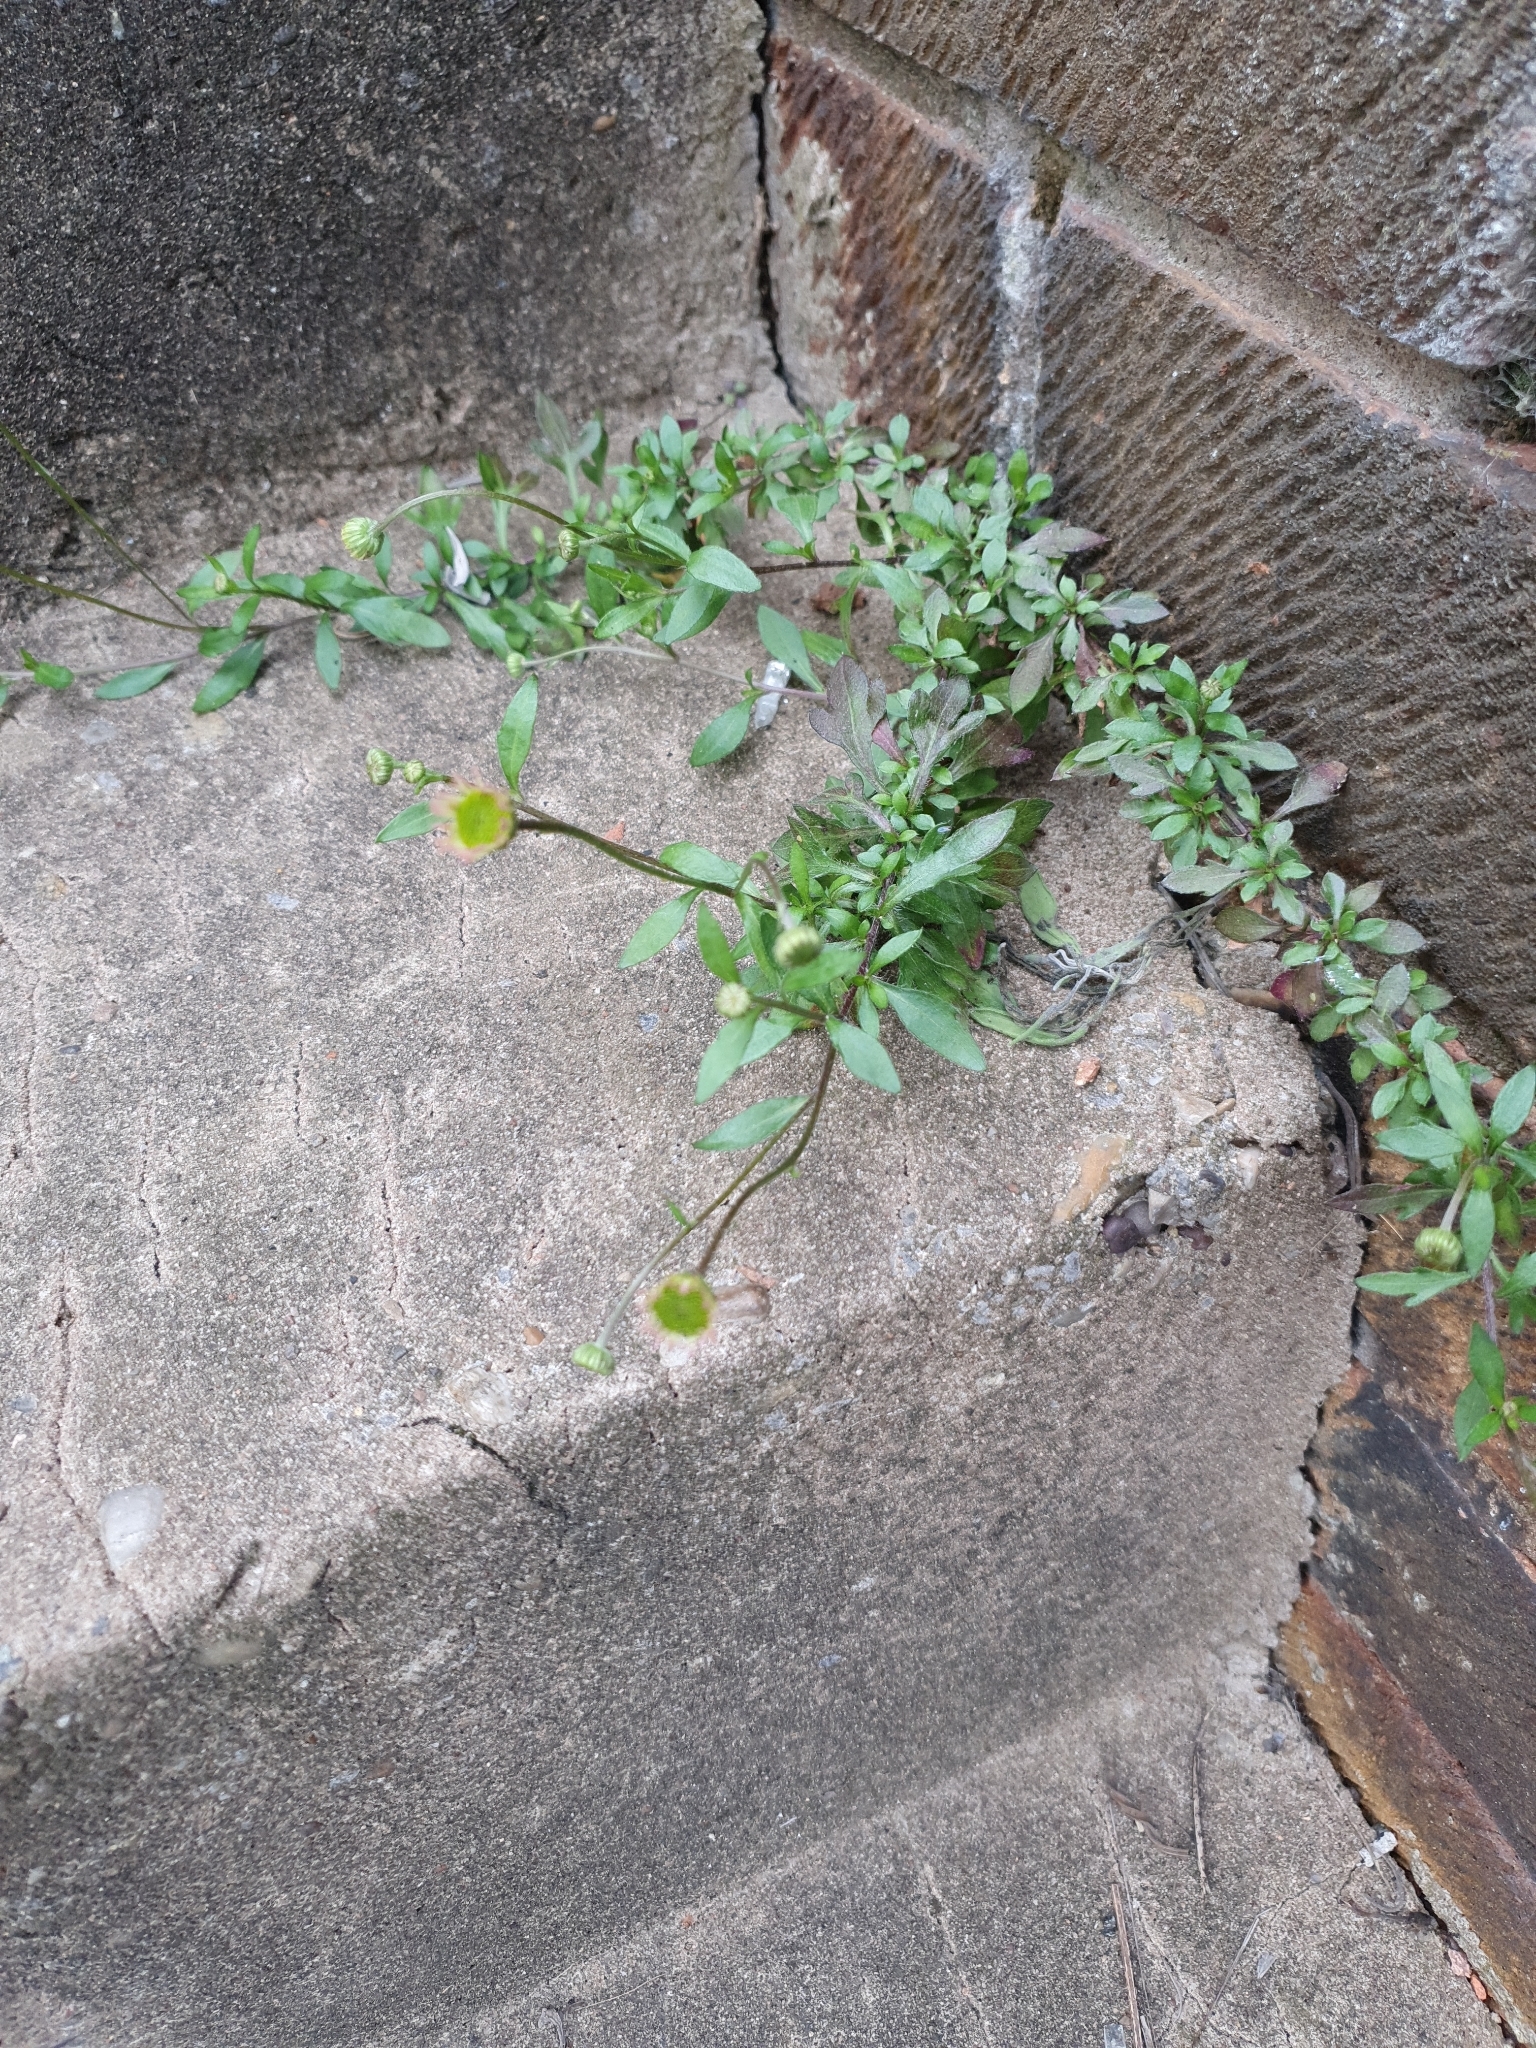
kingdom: Plantae
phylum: Tracheophyta
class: Magnoliopsida
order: Asterales
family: Asteraceae
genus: Erigeron
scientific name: Erigeron karvinskianus
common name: Mexican fleabane
